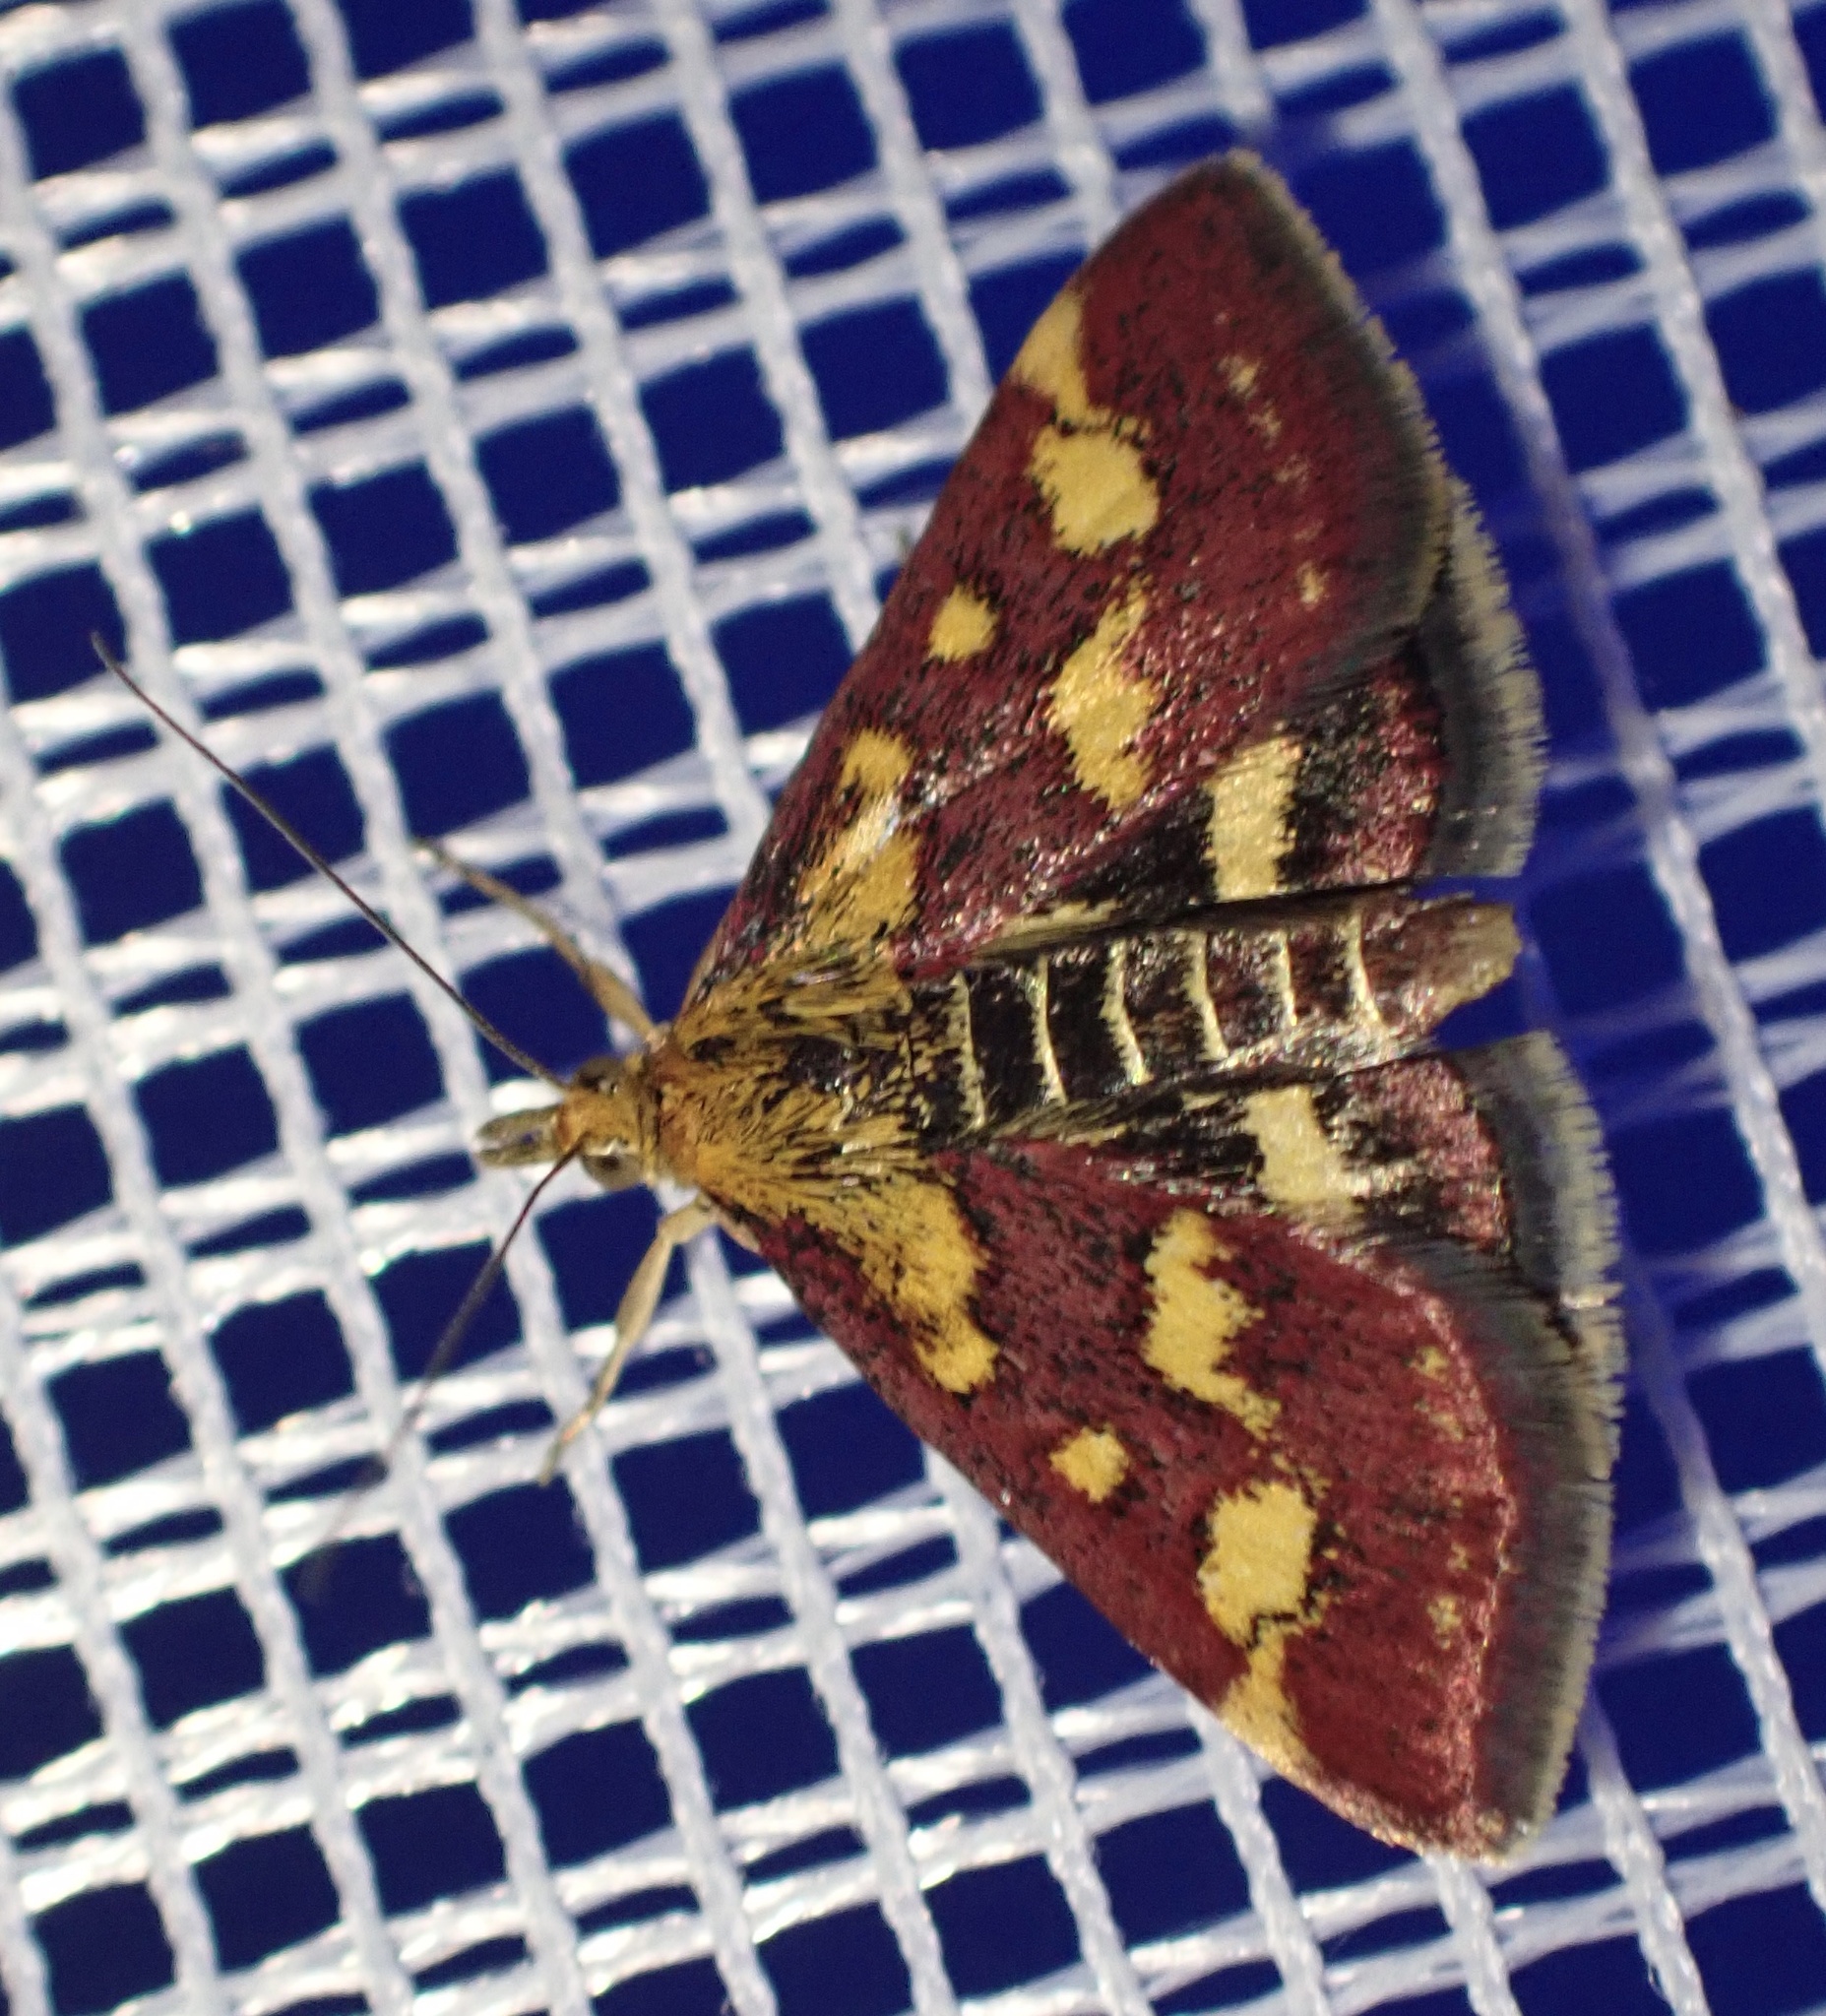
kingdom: Animalia
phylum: Arthropoda
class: Insecta
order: Lepidoptera
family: Crambidae
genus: Pyrausta
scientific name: Pyrausta purpuralis
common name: Common purple & gold
